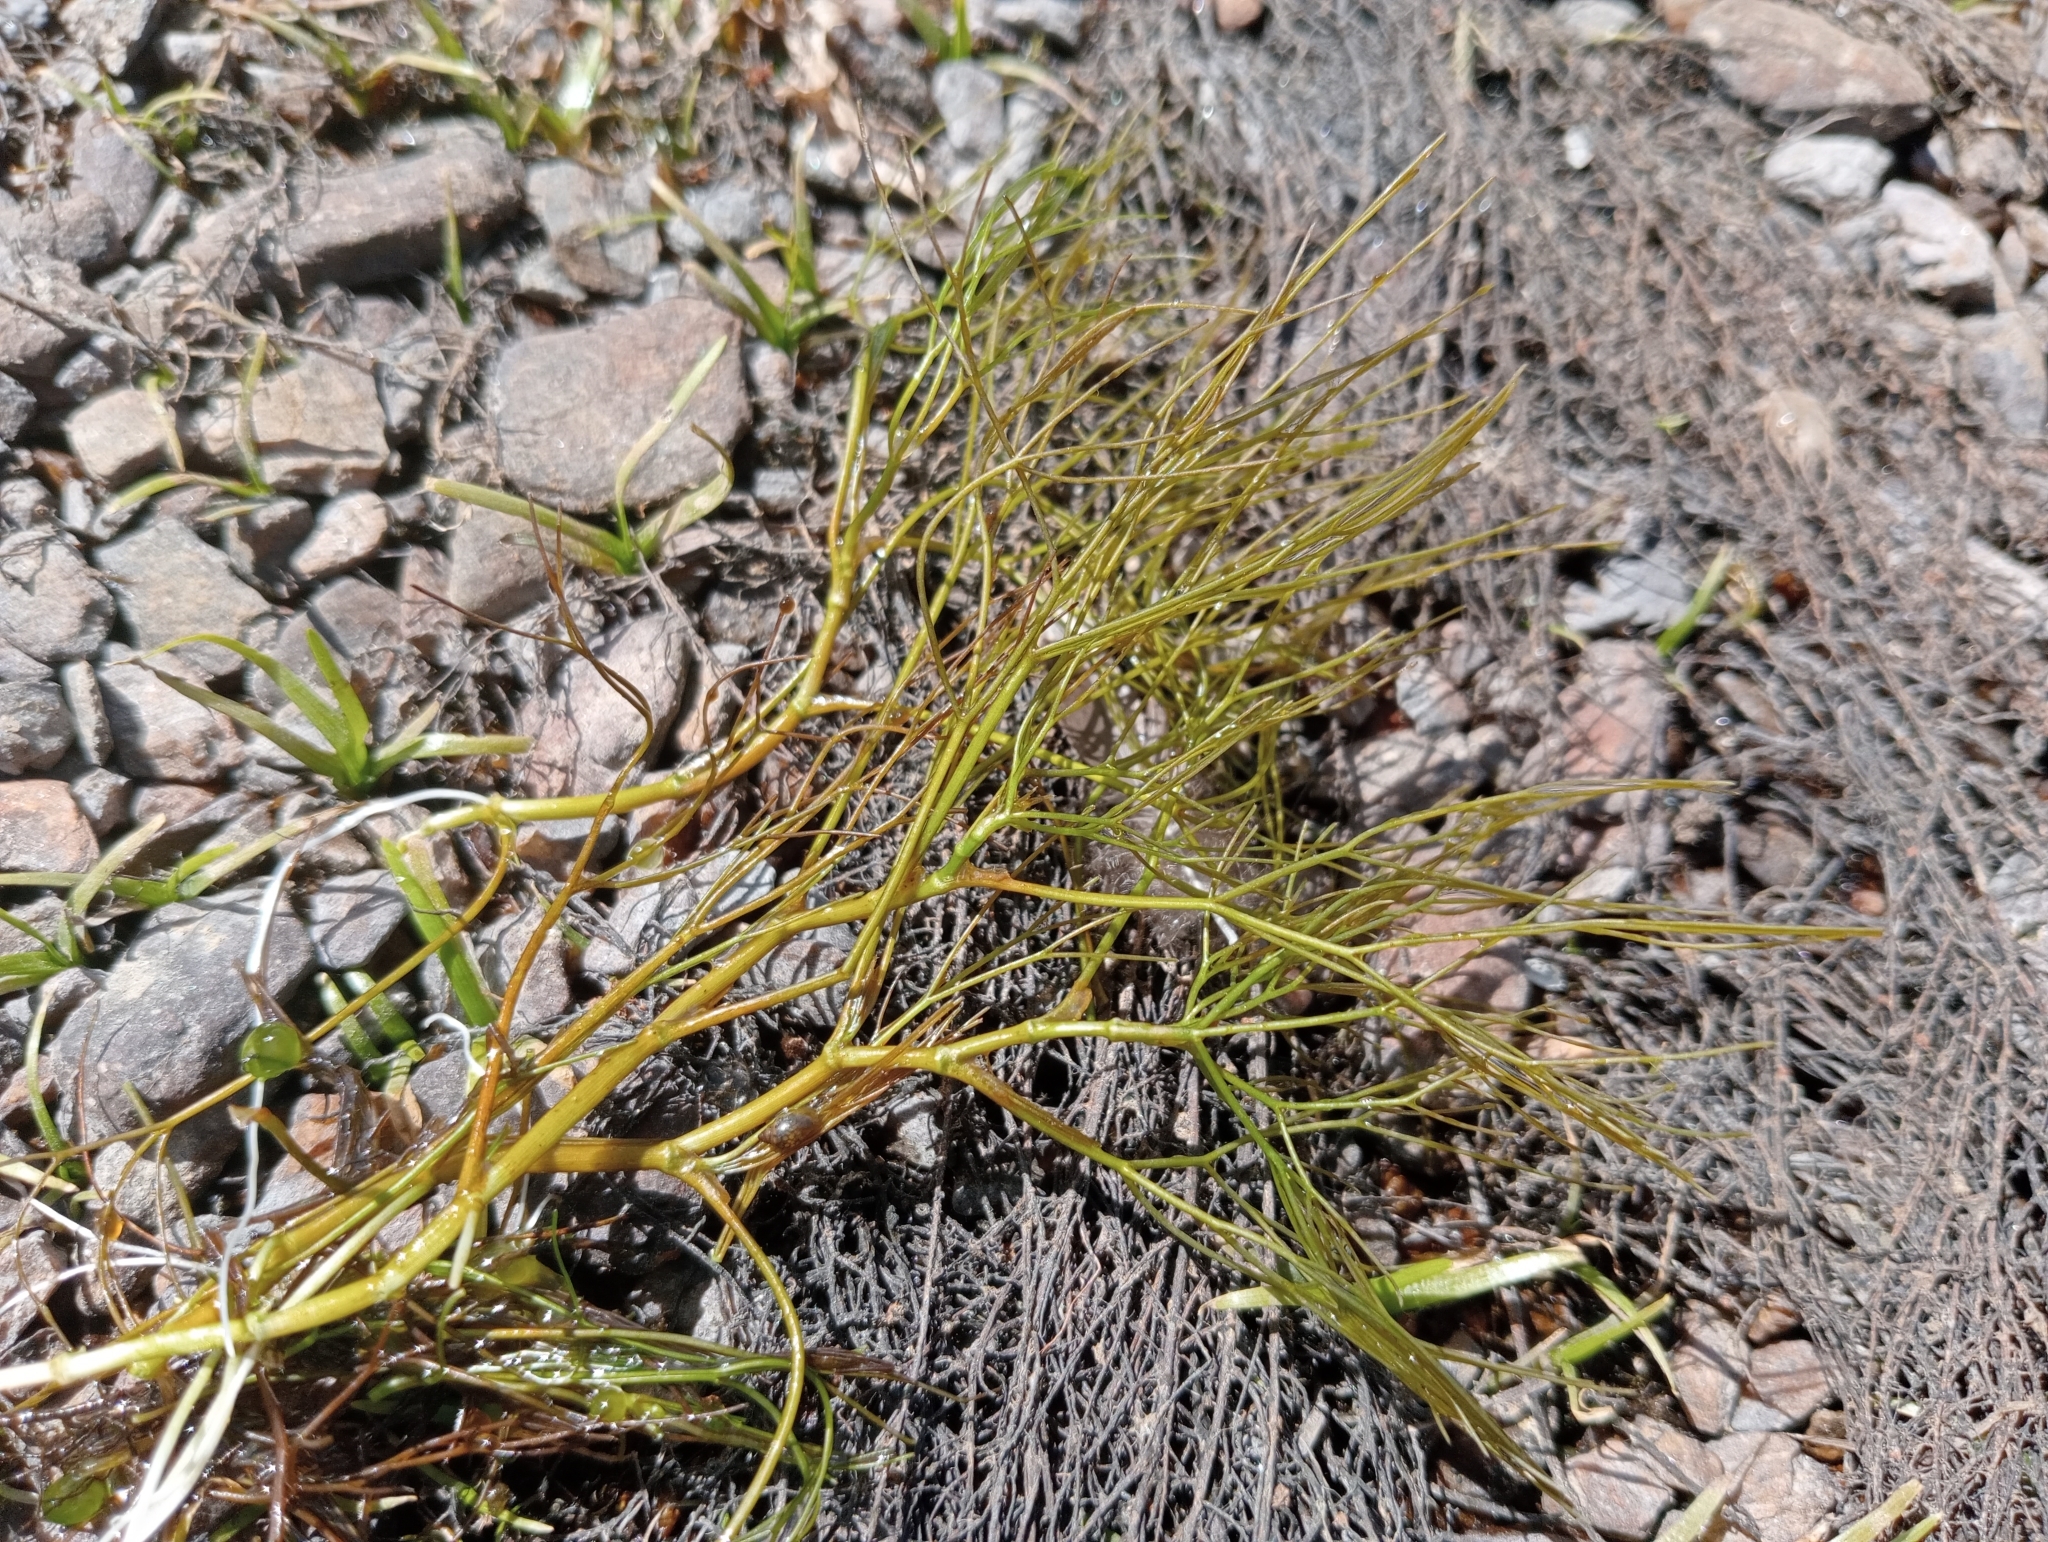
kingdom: Plantae
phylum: Tracheophyta
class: Magnoliopsida
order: Ranunculales
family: Ranunculaceae
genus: Ranunculus
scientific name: Ranunculus trichophyllus
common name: Thread-leaved water-crowfoot
